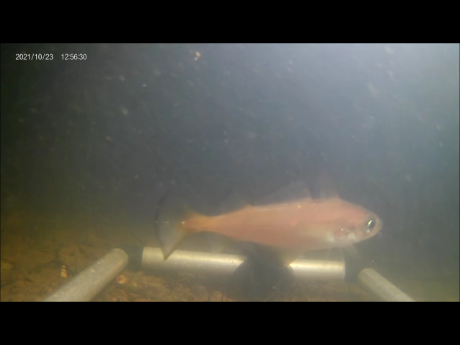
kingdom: Animalia
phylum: Chordata
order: Gadiformes
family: Gadidae
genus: Trisopterus
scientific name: Trisopterus minutus
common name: Poor cod
